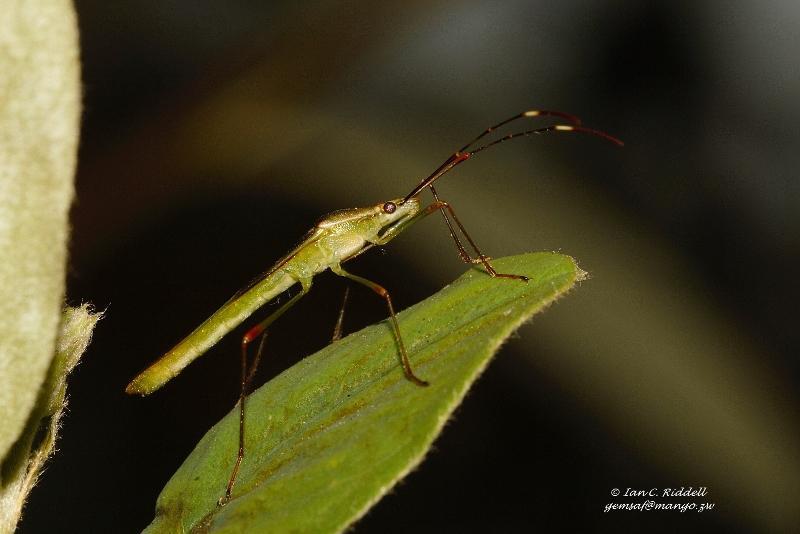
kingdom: Animalia
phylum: Arthropoda
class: Insecta
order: Hemiptera
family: Alydidae
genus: Stenocoris
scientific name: Stenocoris apicalis
